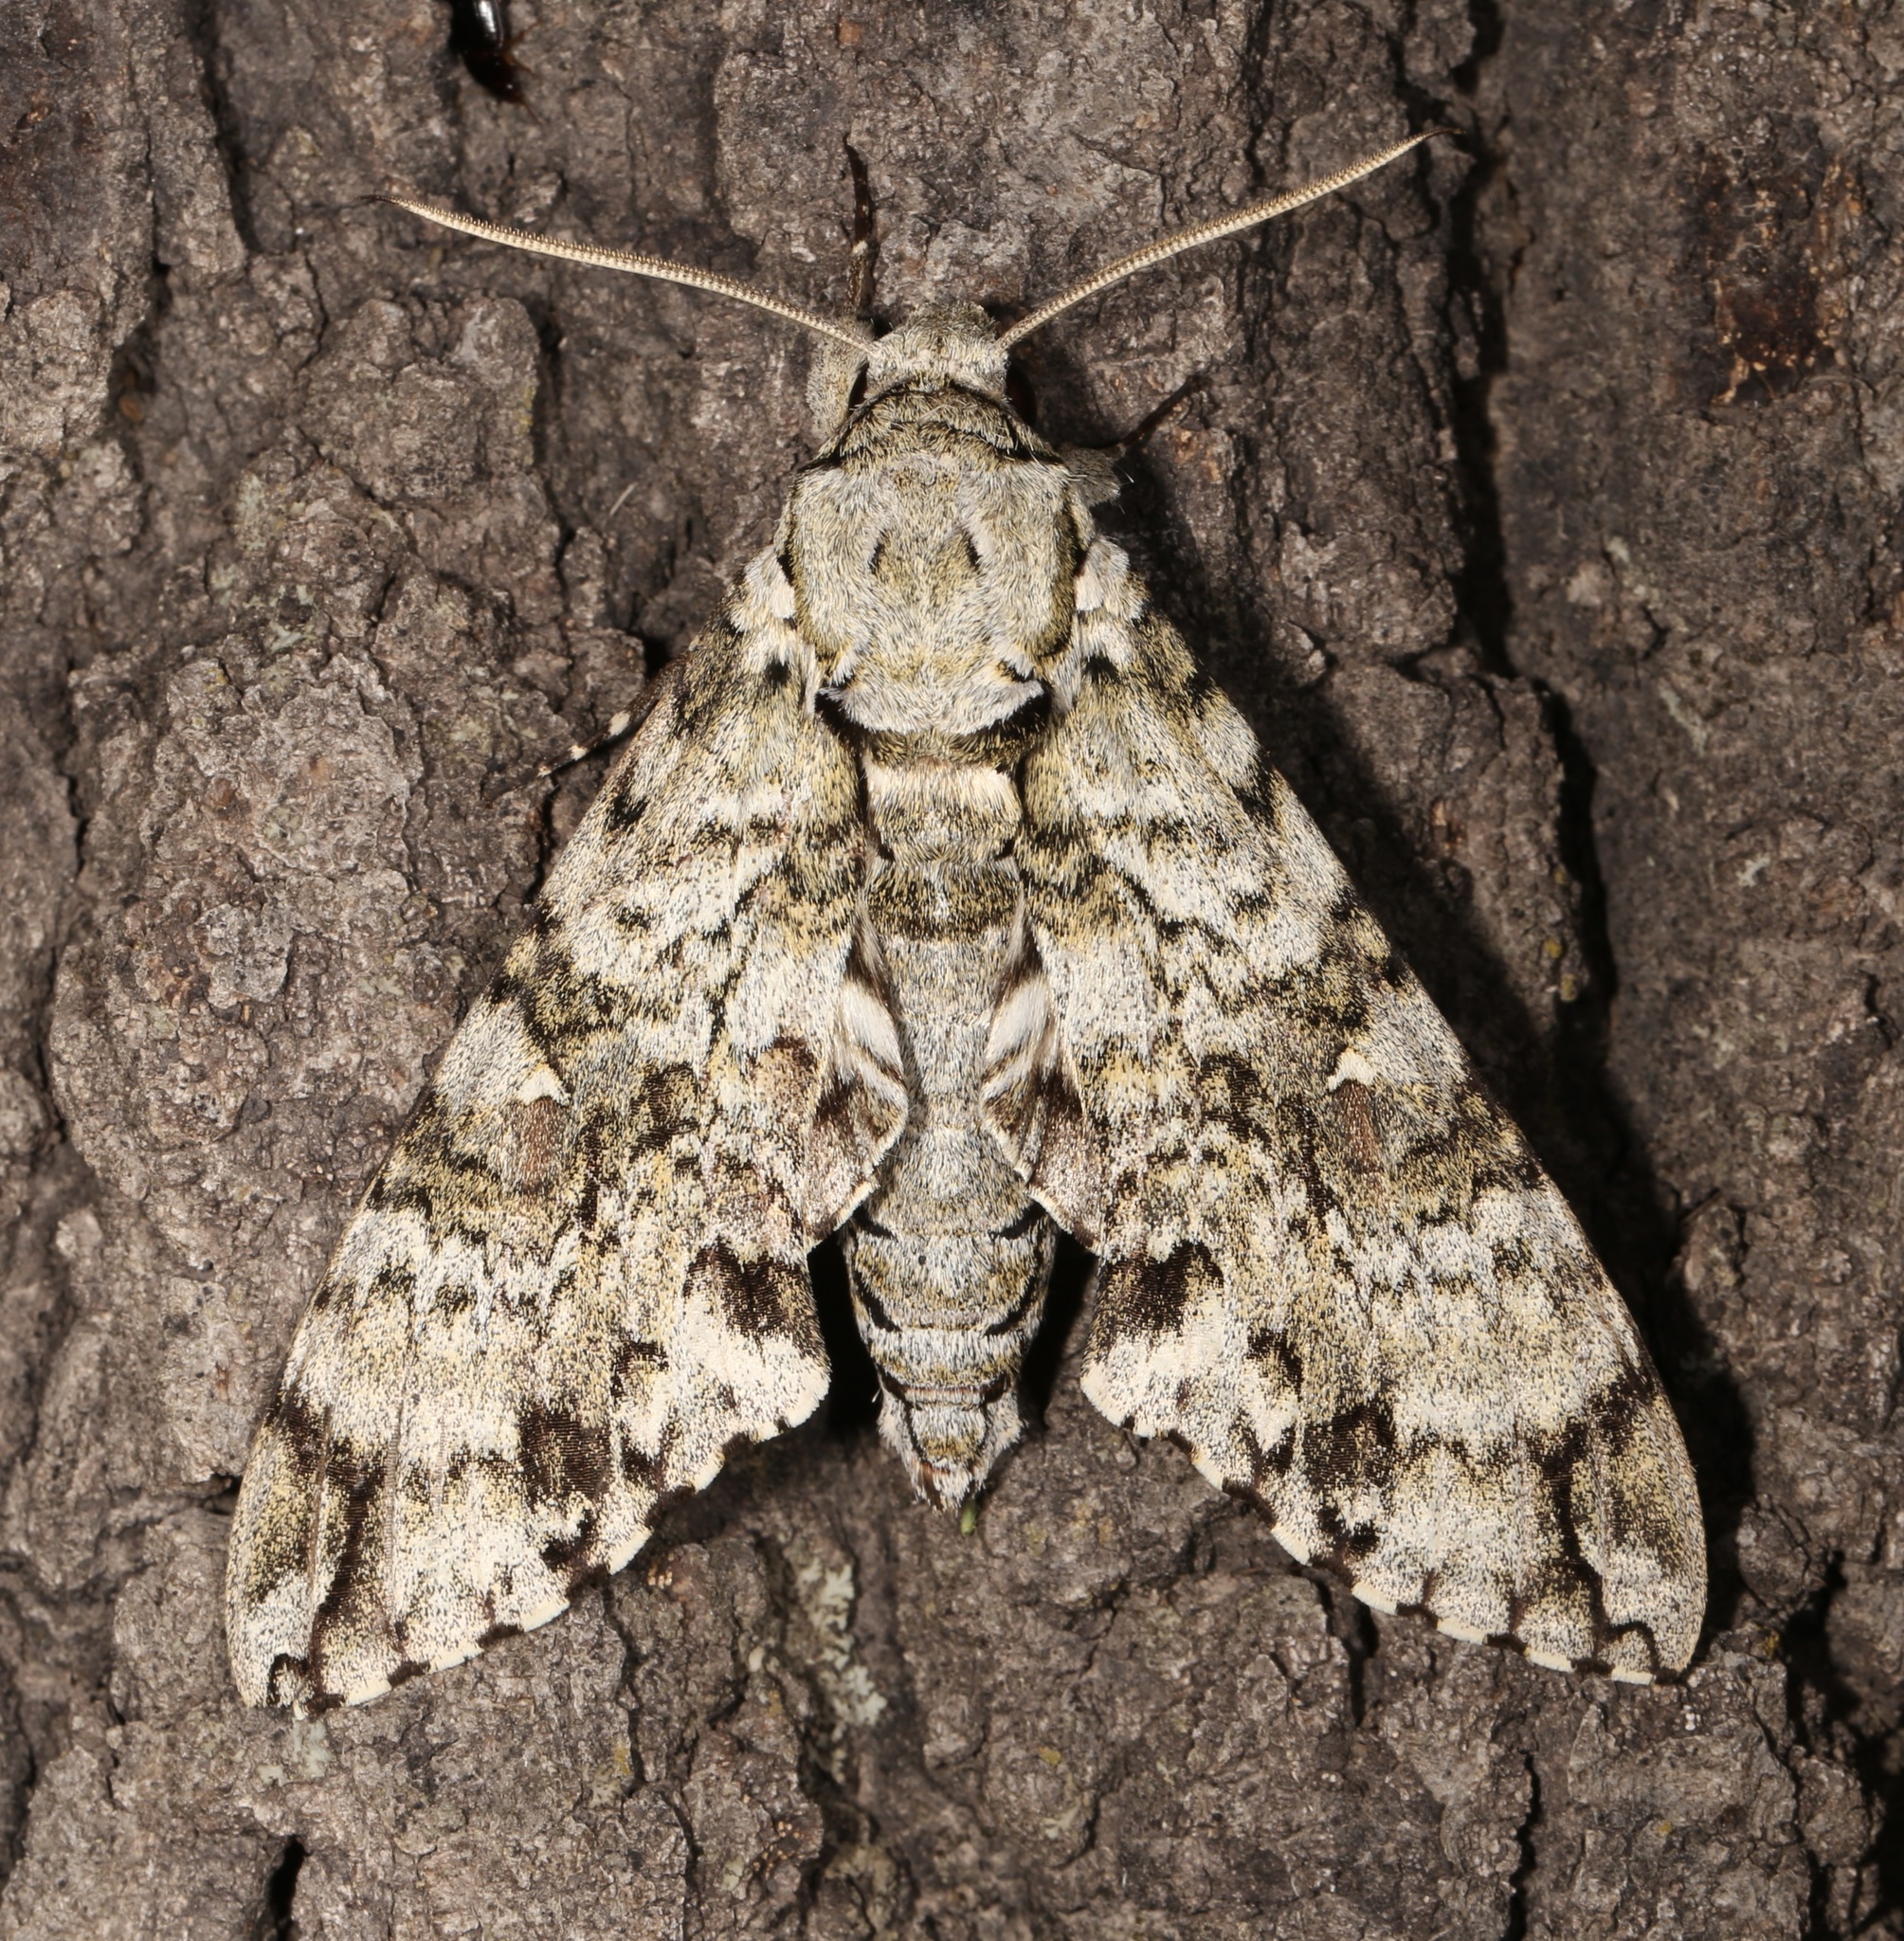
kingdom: Animalia
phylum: Arthropoda
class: Insecta
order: Lepidoptera
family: Sphingidae
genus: Manduca
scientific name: Manduca florestan
